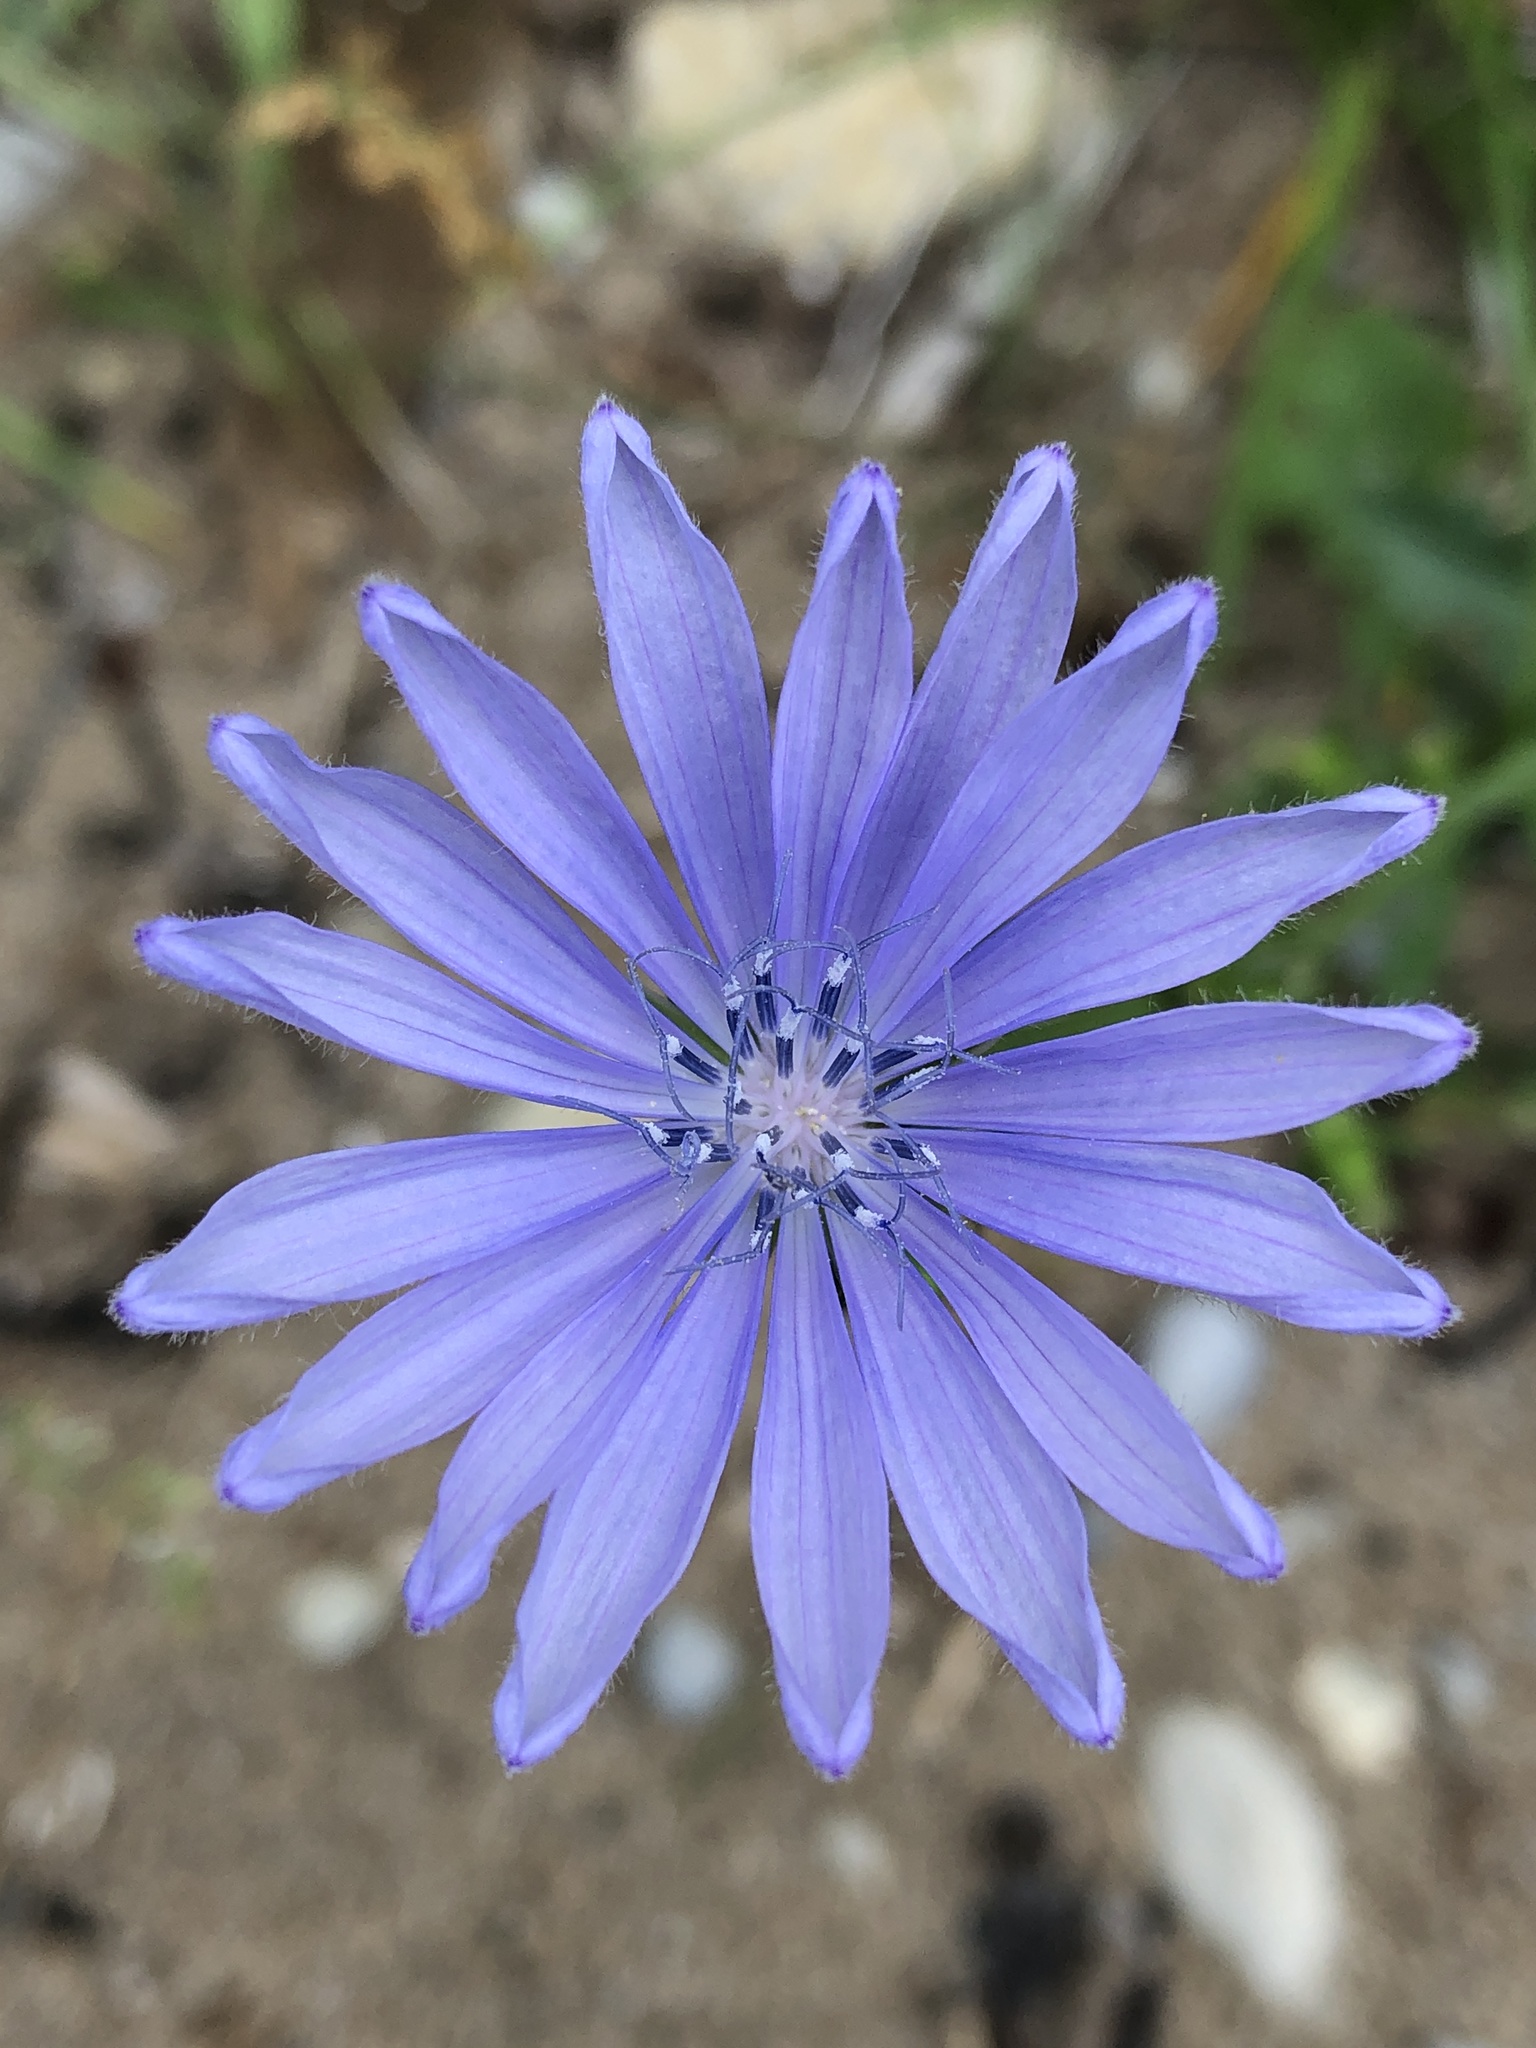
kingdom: Plantae
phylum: Tracheophyta
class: Magnoliopsida
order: Asterales
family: Asteraceae
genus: Cichorium
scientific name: Cichorium intybus
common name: Chicory
